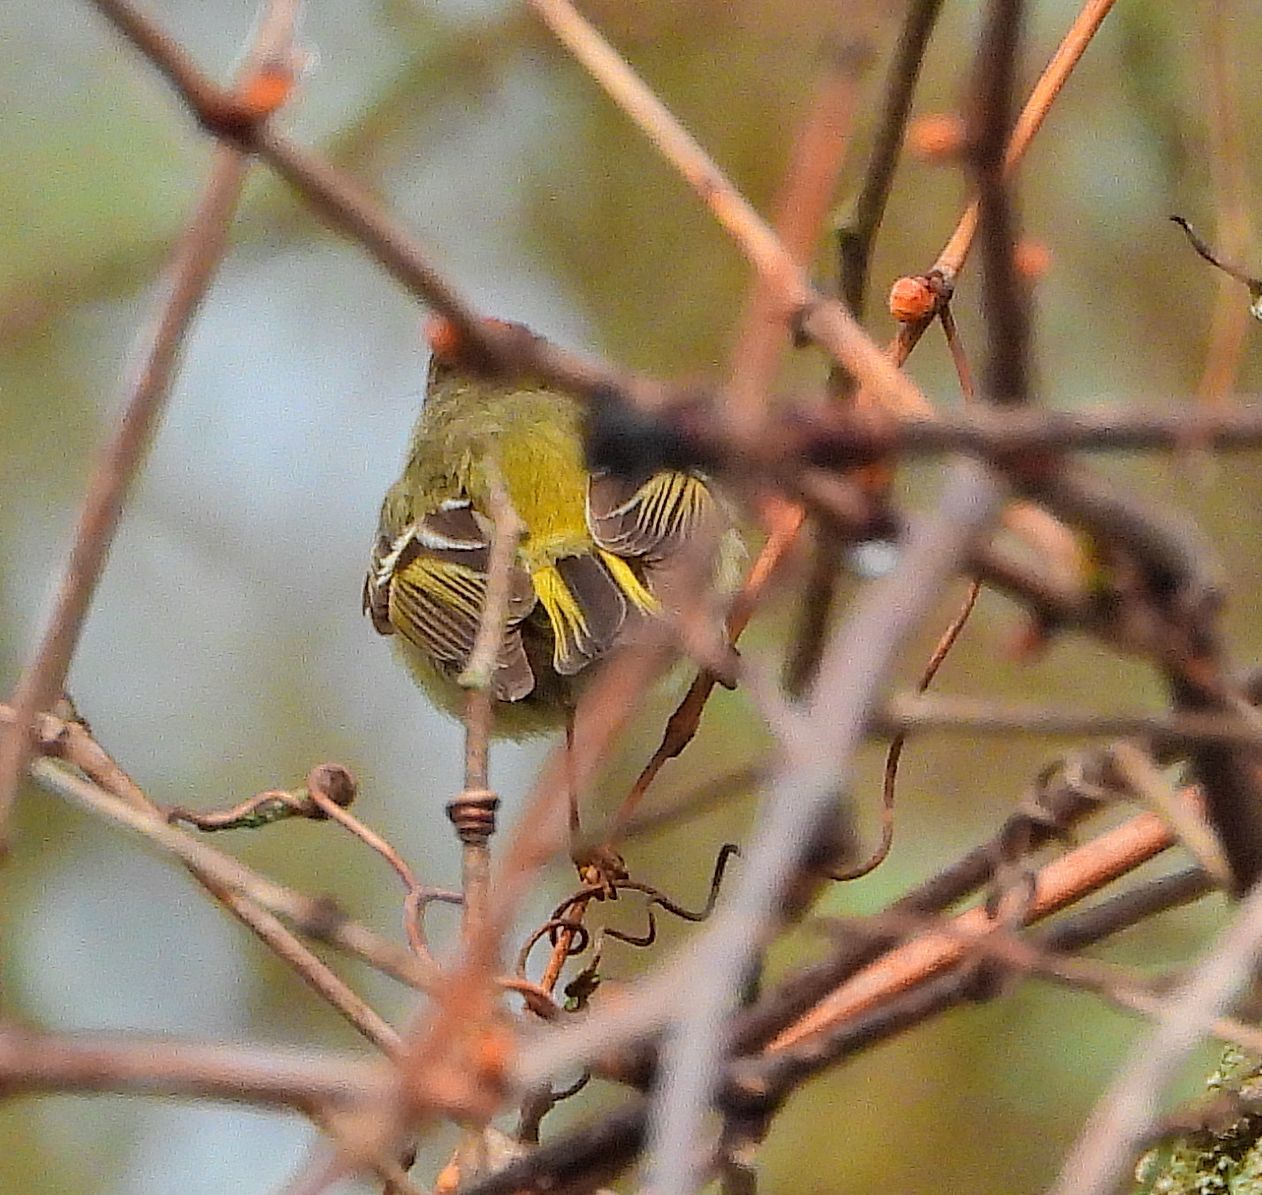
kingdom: Animalia
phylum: Chordata
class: Aves
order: Passeriformes
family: Regulidae
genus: Regulus
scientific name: Regulus calendula
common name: Ruby-crowned kinglet
